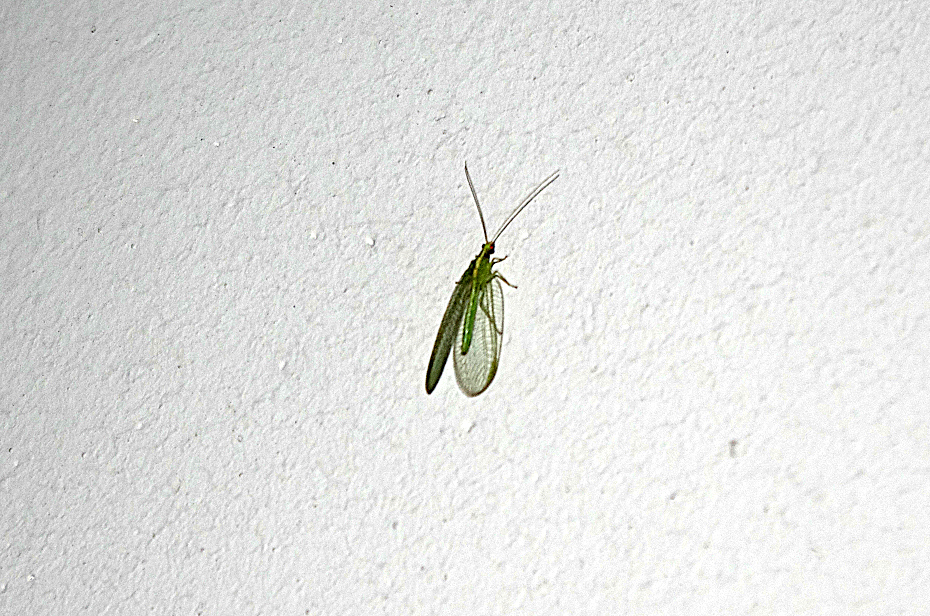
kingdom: Animalia
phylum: Arthropoda
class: Insecta
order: Neuroptera
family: Chrysopidae
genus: Chrysoperla
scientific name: Chrysoperla
